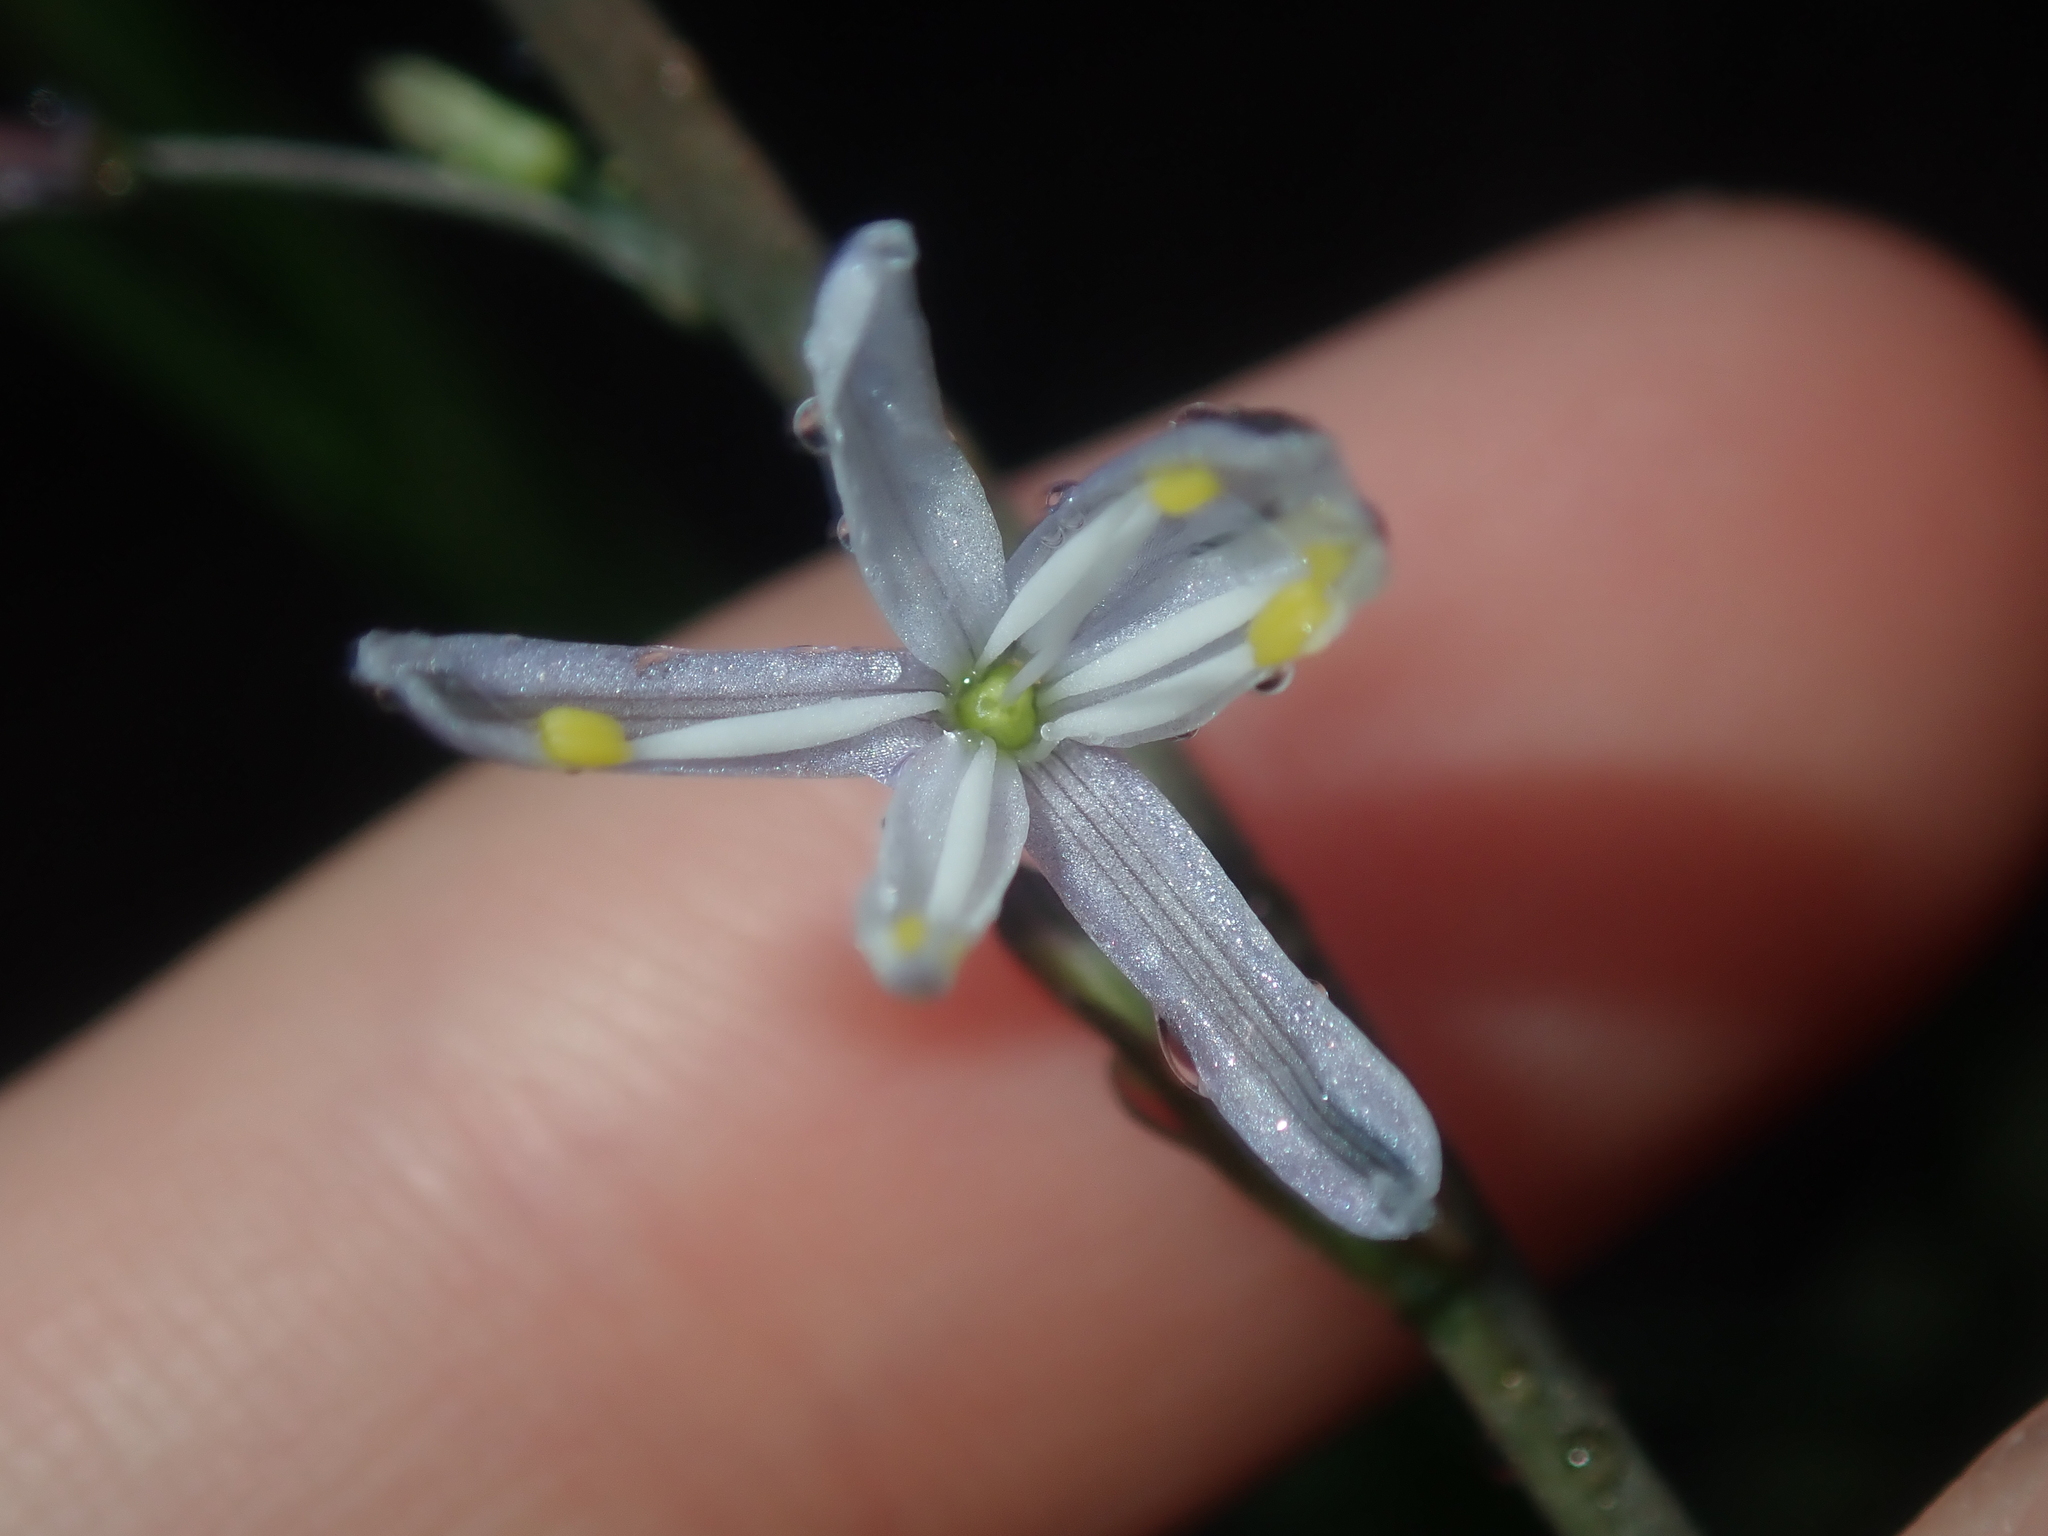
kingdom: Plantae
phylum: Tracheophyta
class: Liliopsida
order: Asparagales
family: Asphodelaceae
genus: Caesia
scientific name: Caesia micrantha
